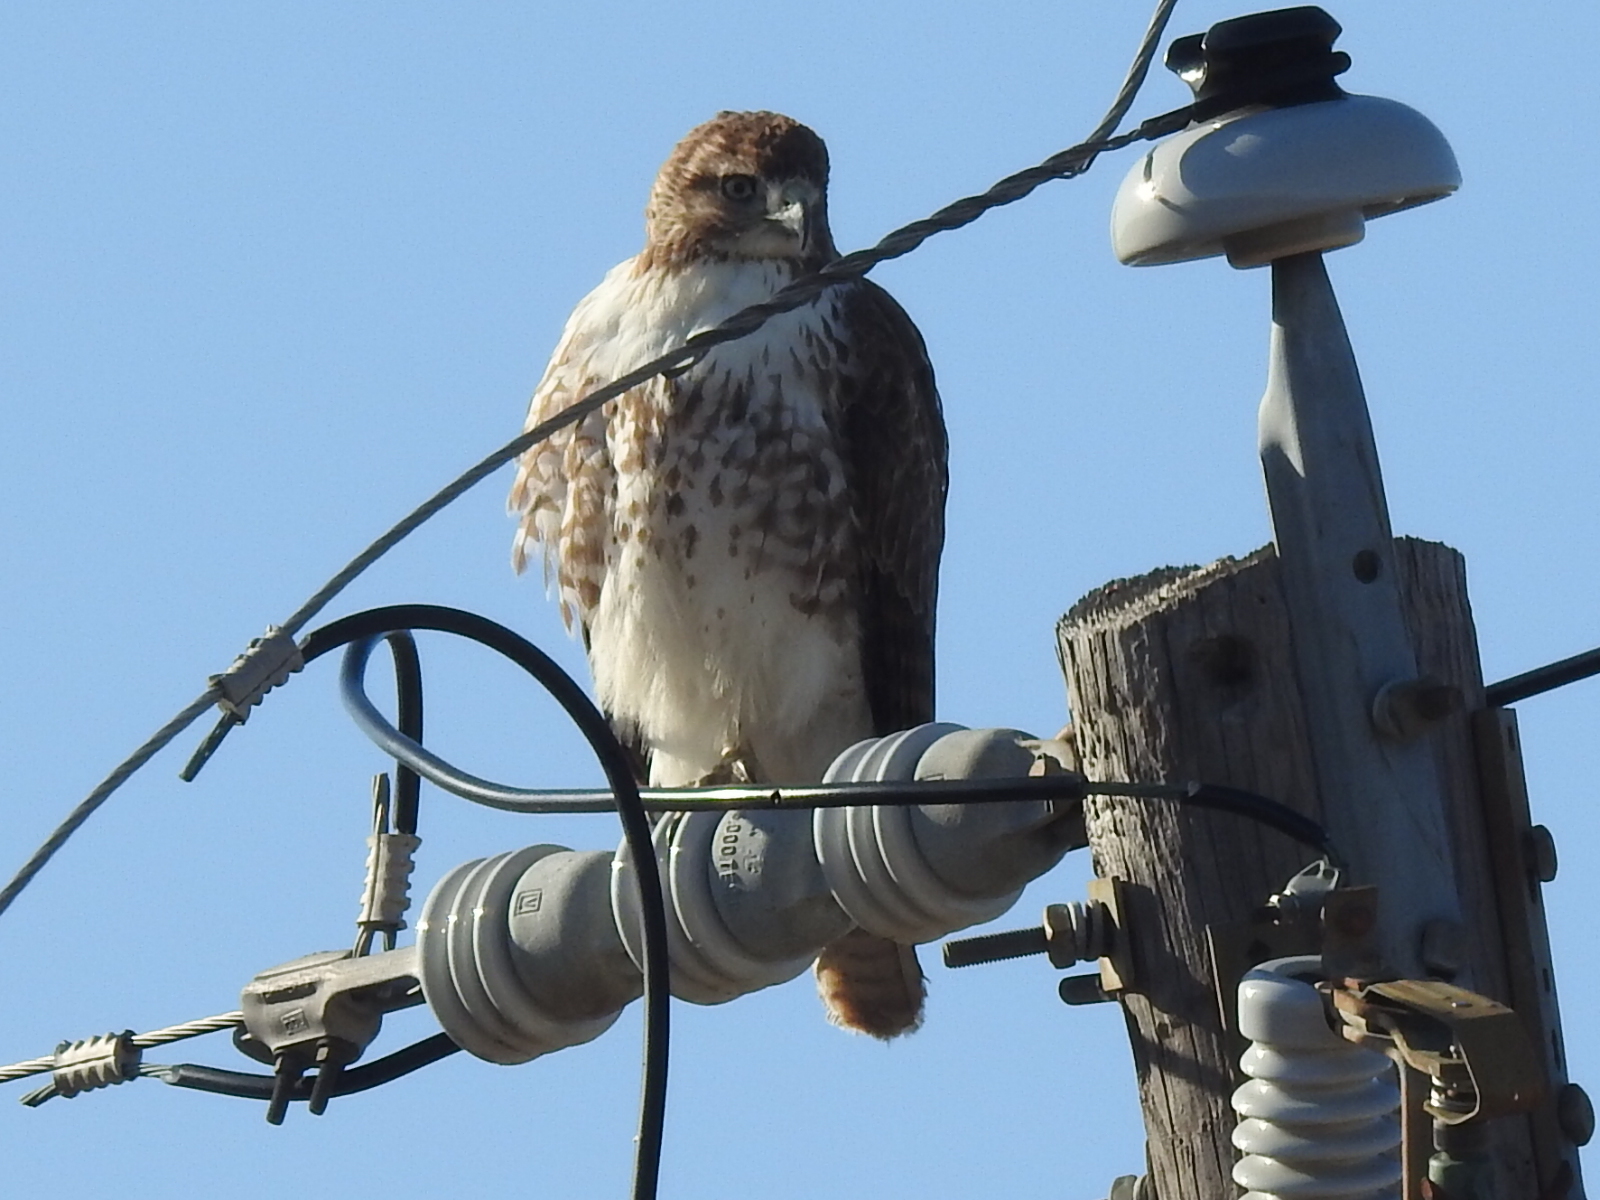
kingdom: Animalia
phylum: Chordata
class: Aves
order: Accipitriformes
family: Accipitridae
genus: Buteo
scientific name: Buteo jamaicensis
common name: Red-tailed hawk
